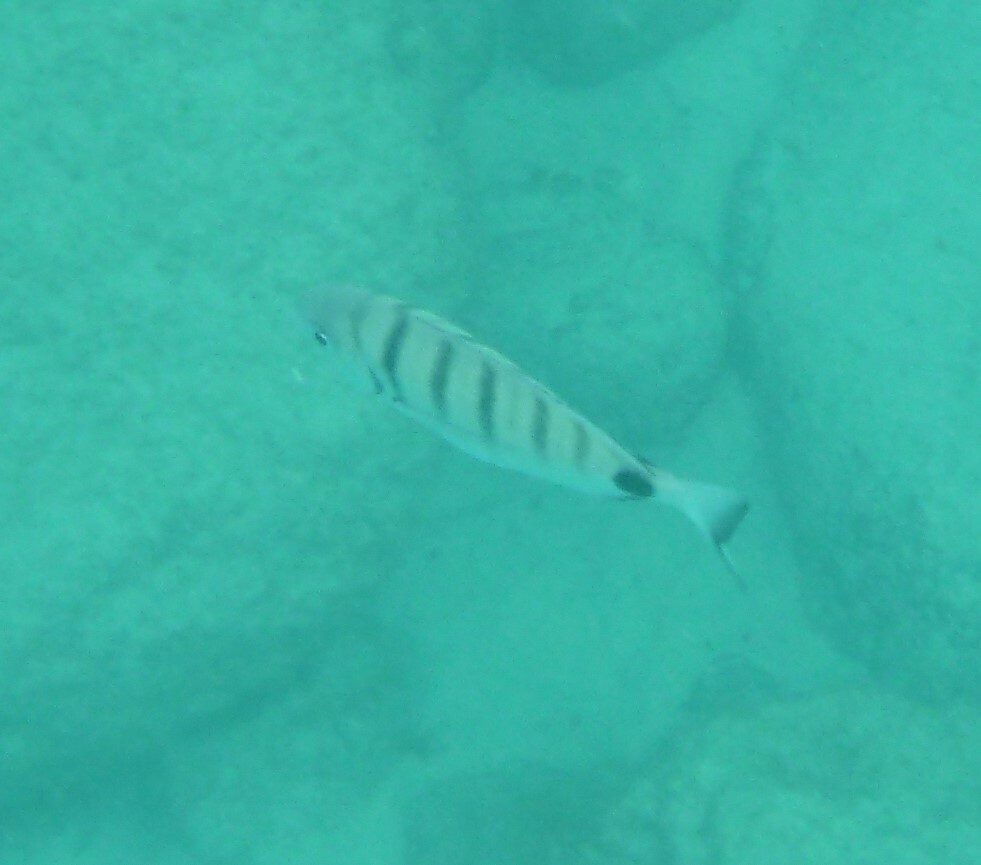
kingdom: Animalia
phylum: Chordata
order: Perciformes
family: Sparidae
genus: Diplodus
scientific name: Diplodus cadenati
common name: Moroccan white seabream
